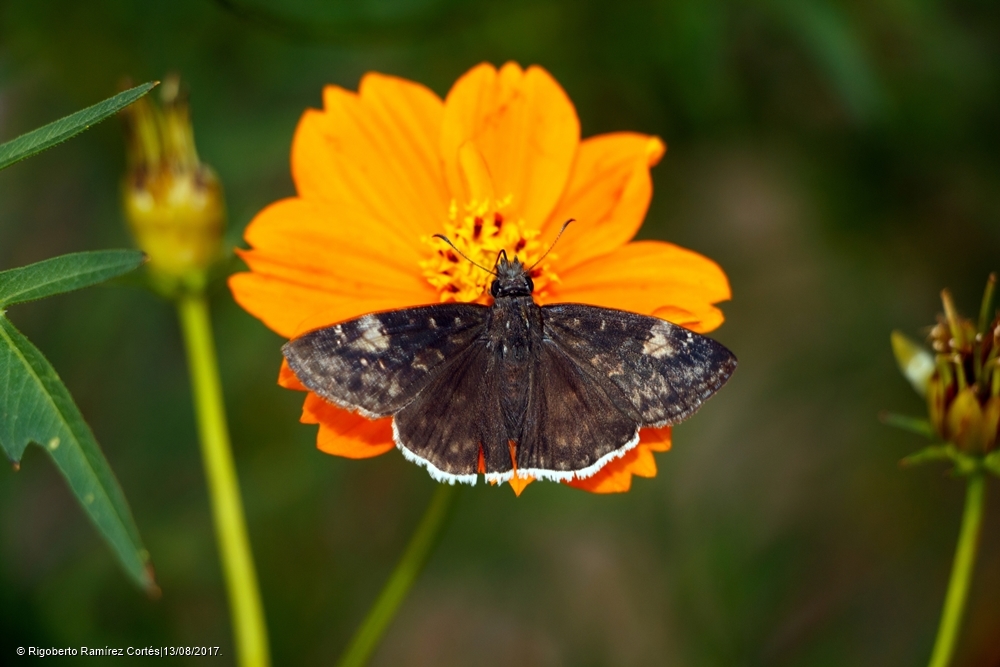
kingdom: Animalia
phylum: Arthropoda
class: Insecta
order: Lepidoptera
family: Hesperiidae
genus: Erynnis
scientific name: Erynnis funeralis
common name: Funereal duskywing
